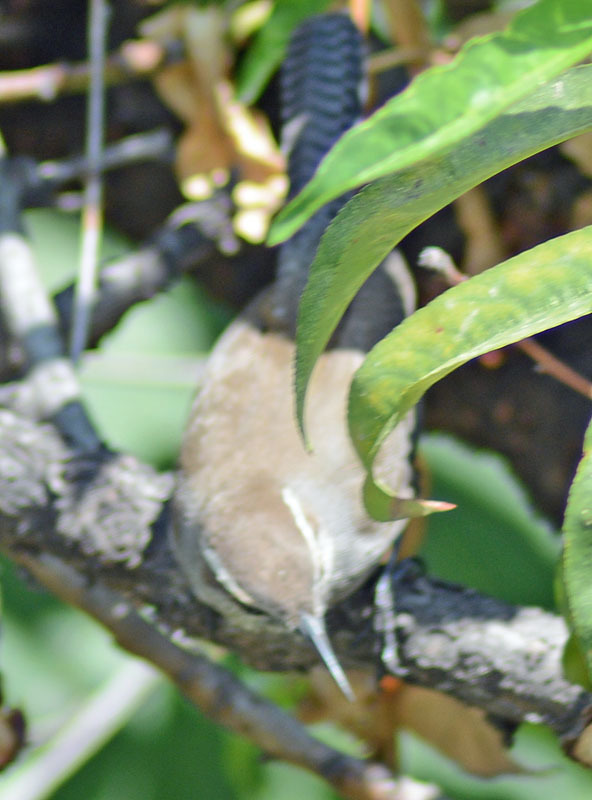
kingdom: Animalia
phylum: Chordata
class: Aves
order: Passeriformes
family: Troglodytidae
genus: Thryomanes
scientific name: Thryomanes bewickii
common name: Bewick's wren
